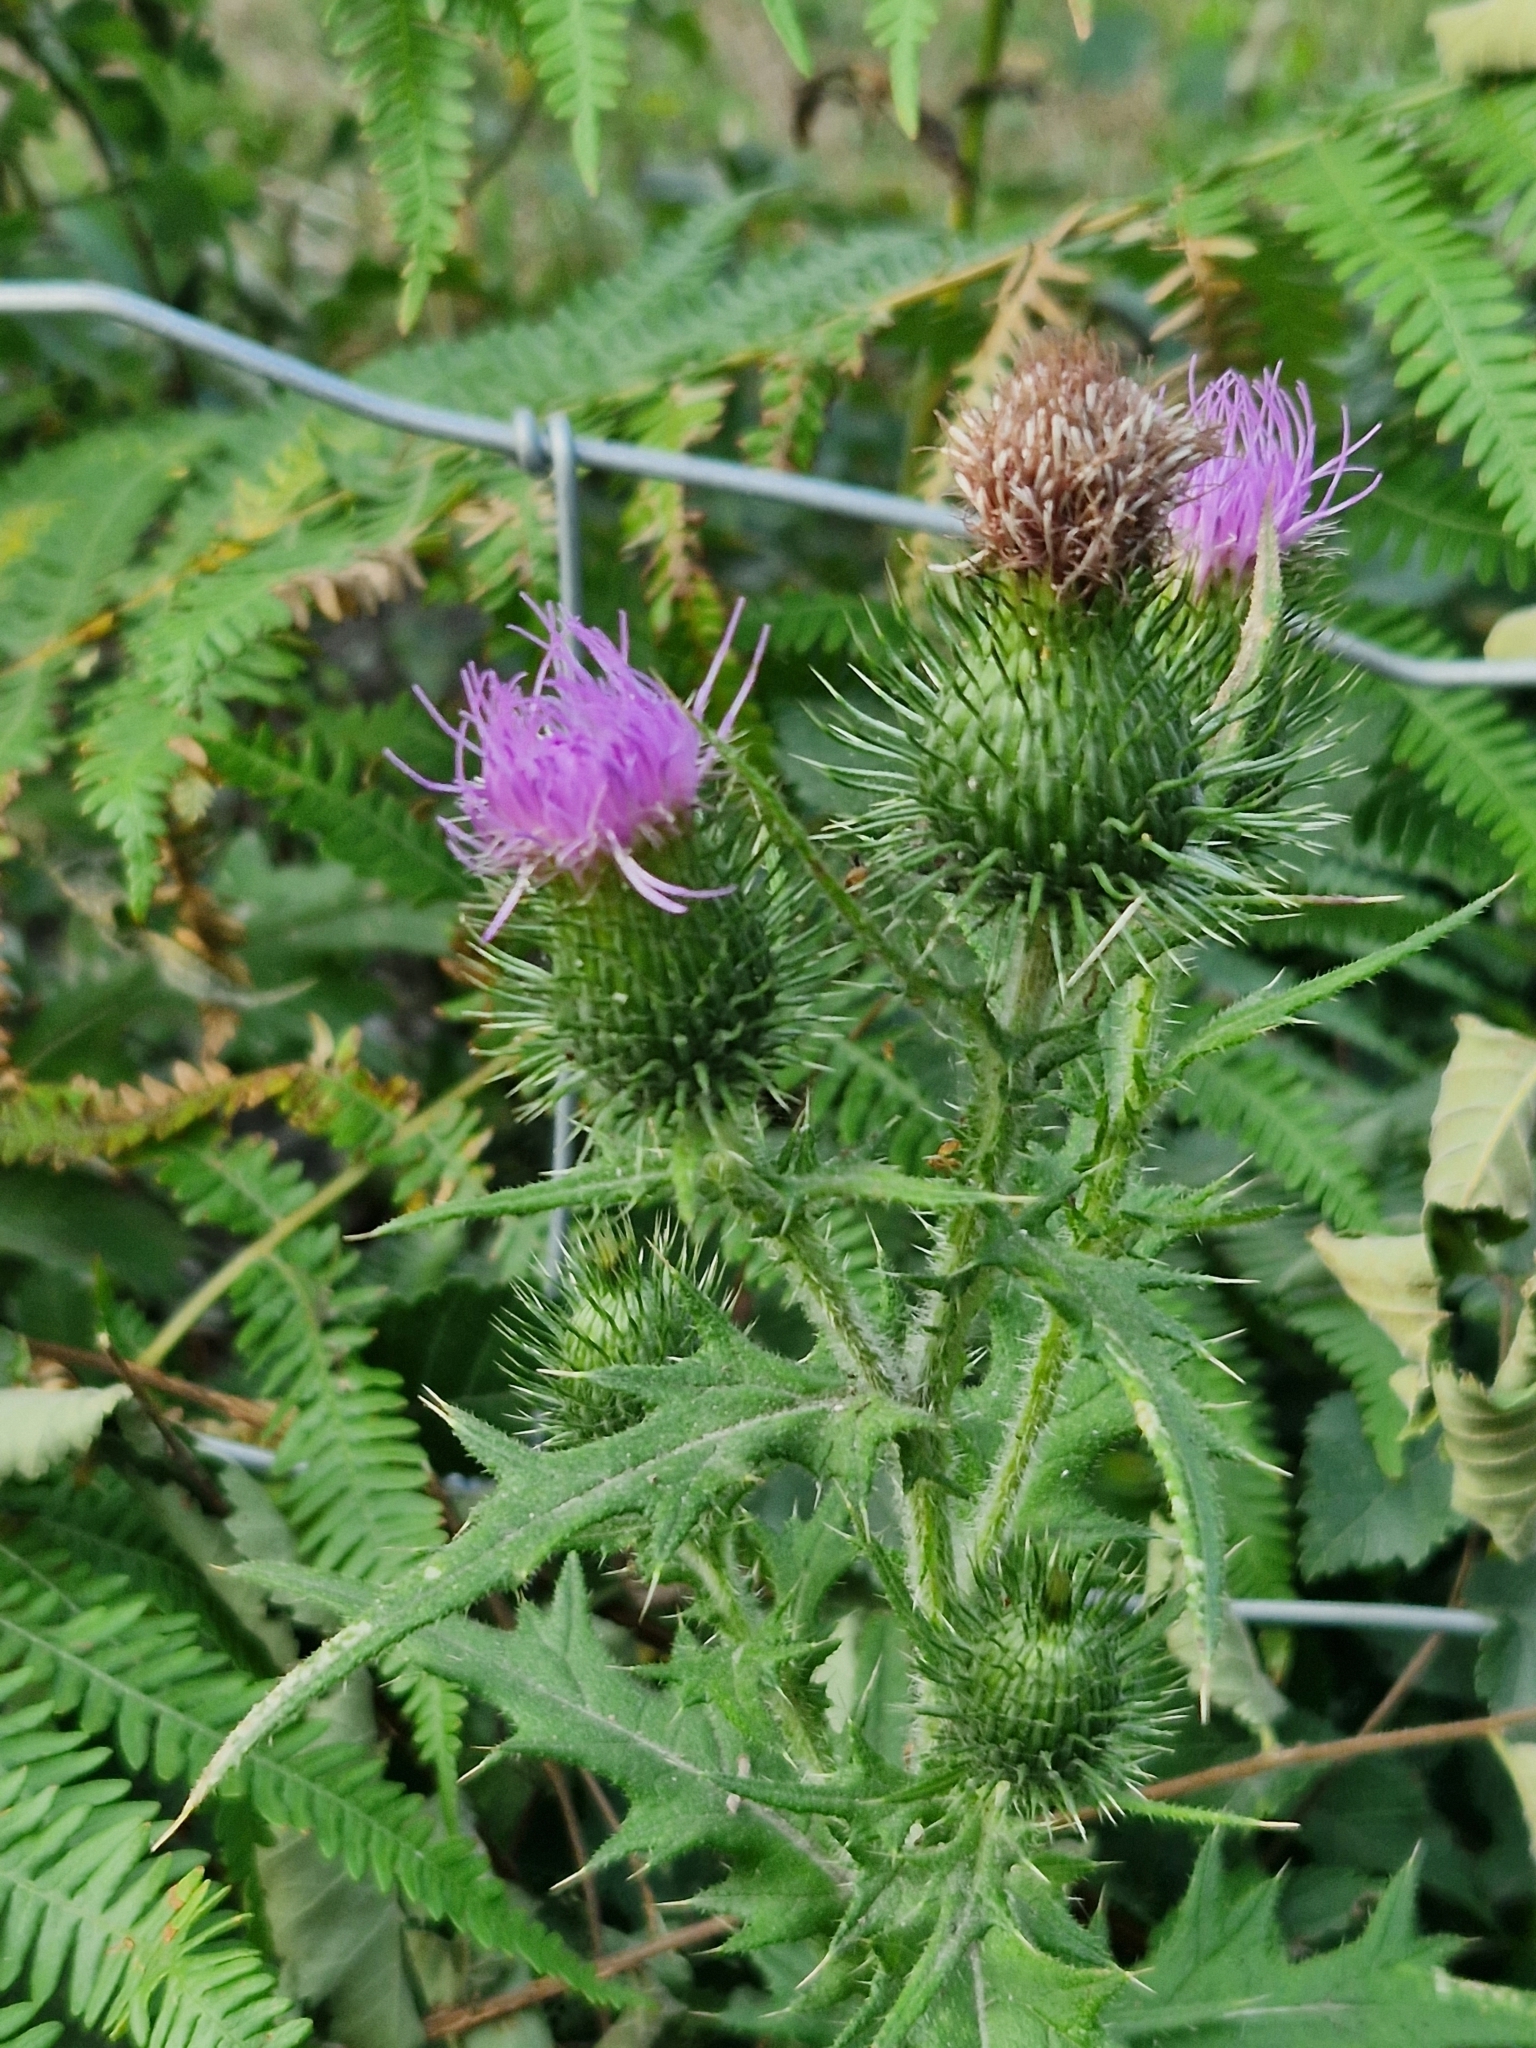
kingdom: Plantae
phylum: Tracheophyta
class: Magnoliopsida
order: Asterales
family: Asteraceae
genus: Cirsium
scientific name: Cirsium vulgare
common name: Bull thistle
